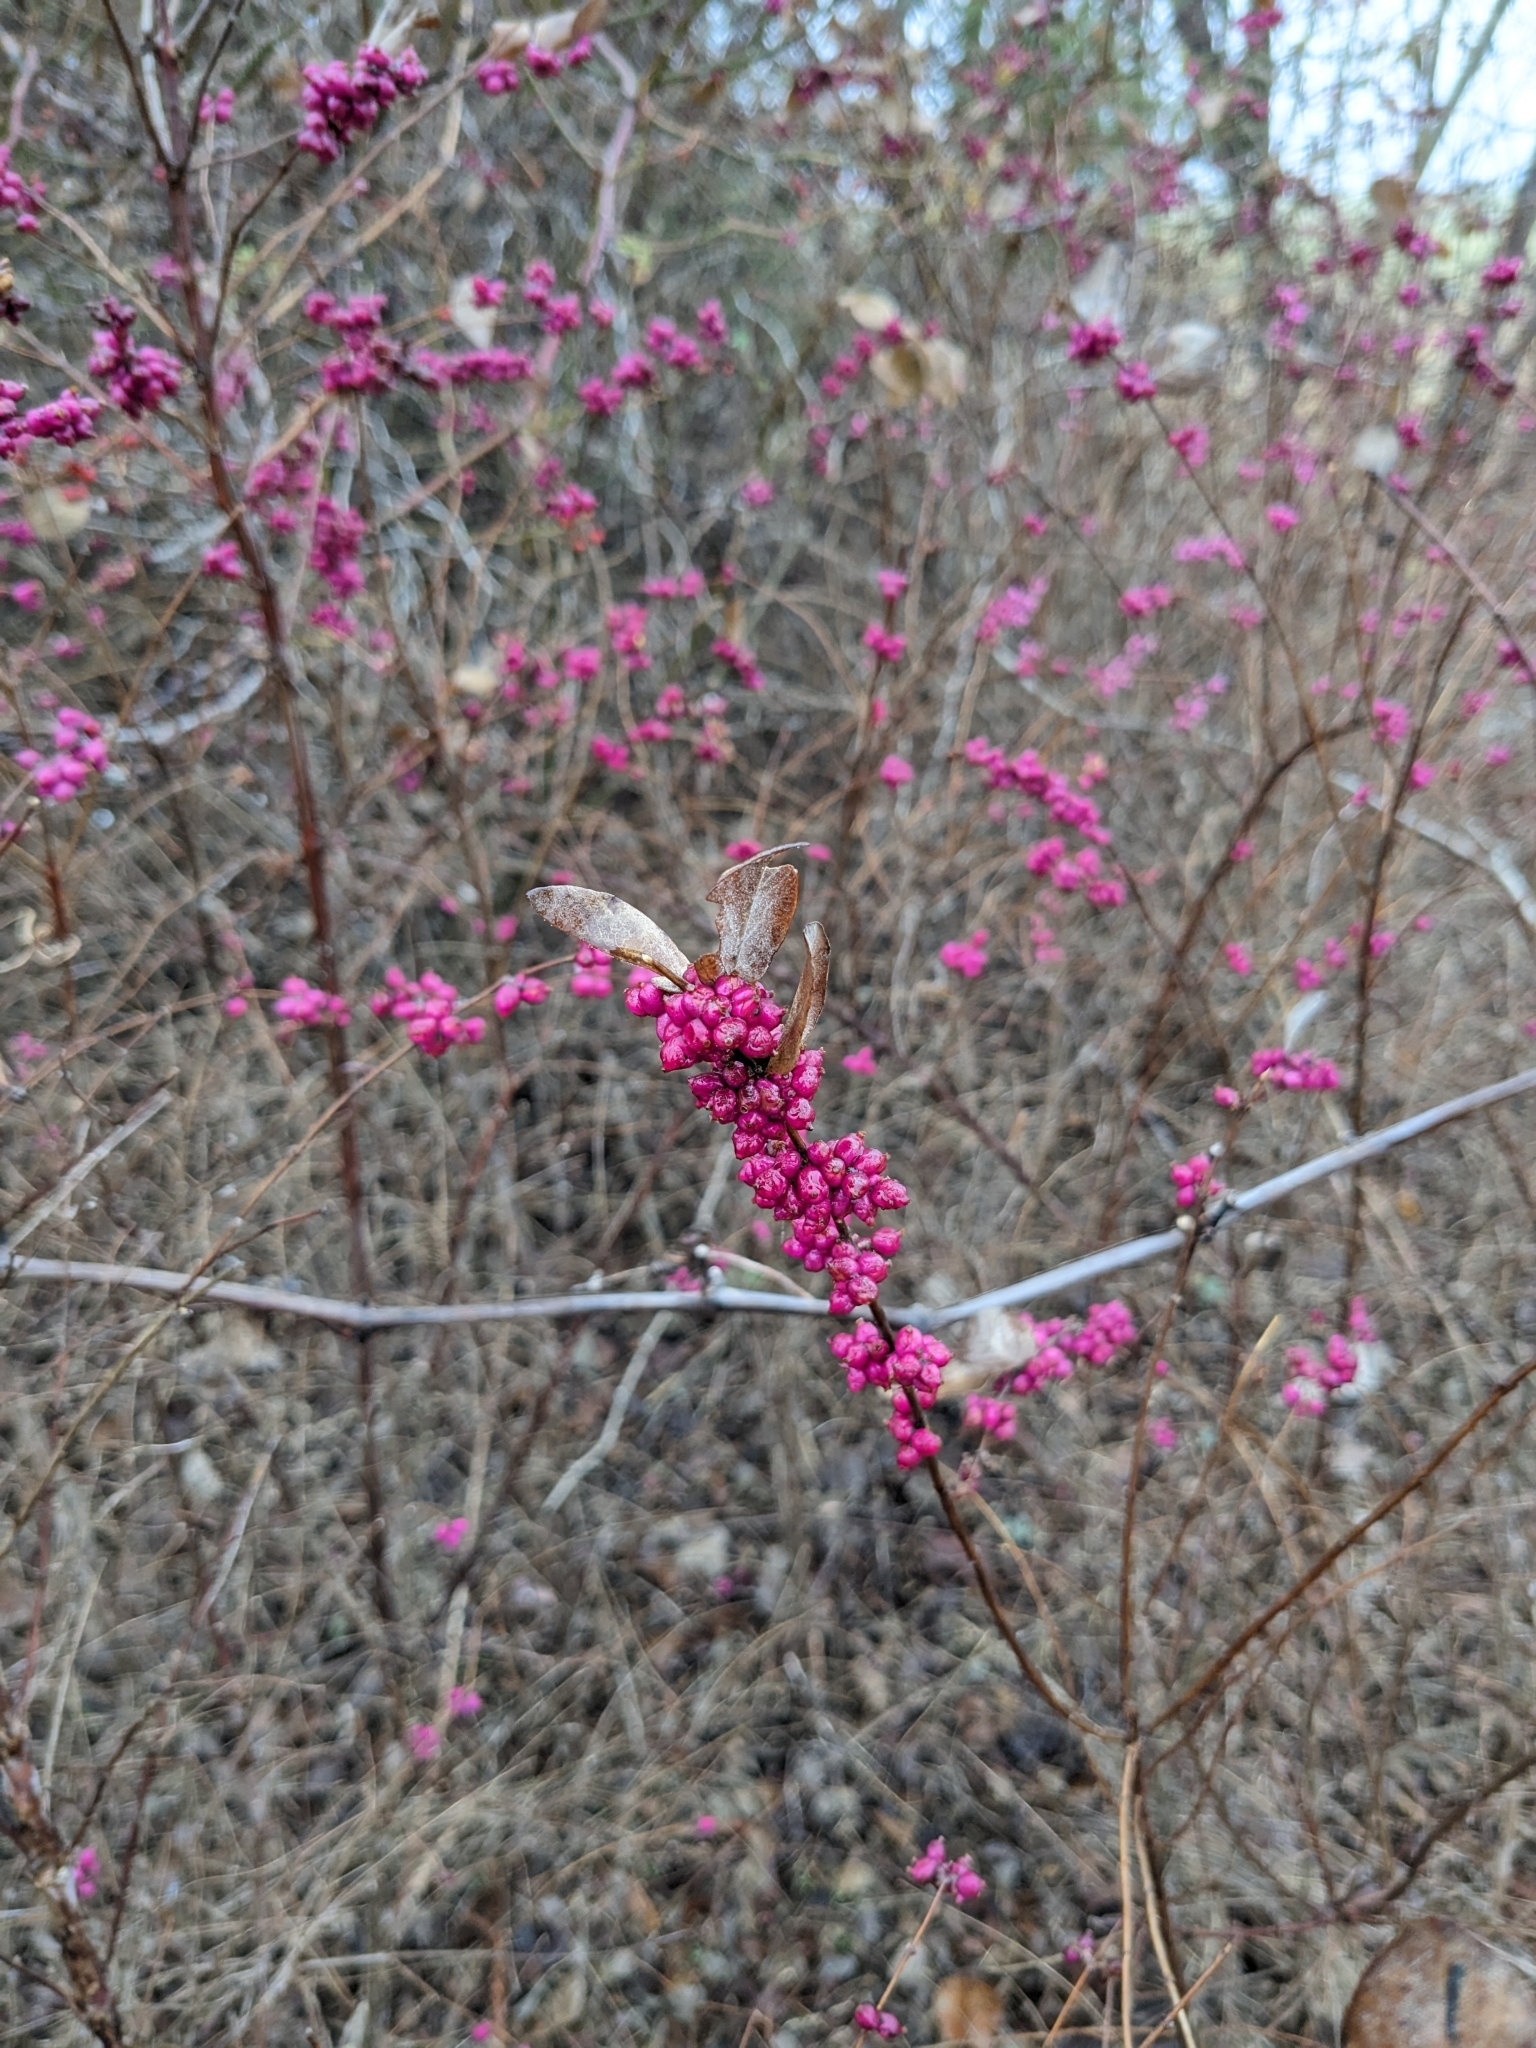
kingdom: Plantae
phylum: Tracheophyta
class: Magnoliopsida
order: Dipsacales
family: Caprifoliaceae
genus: Symphoricarpos
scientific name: Symphoricarpos orbiculatus
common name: Coralberry
